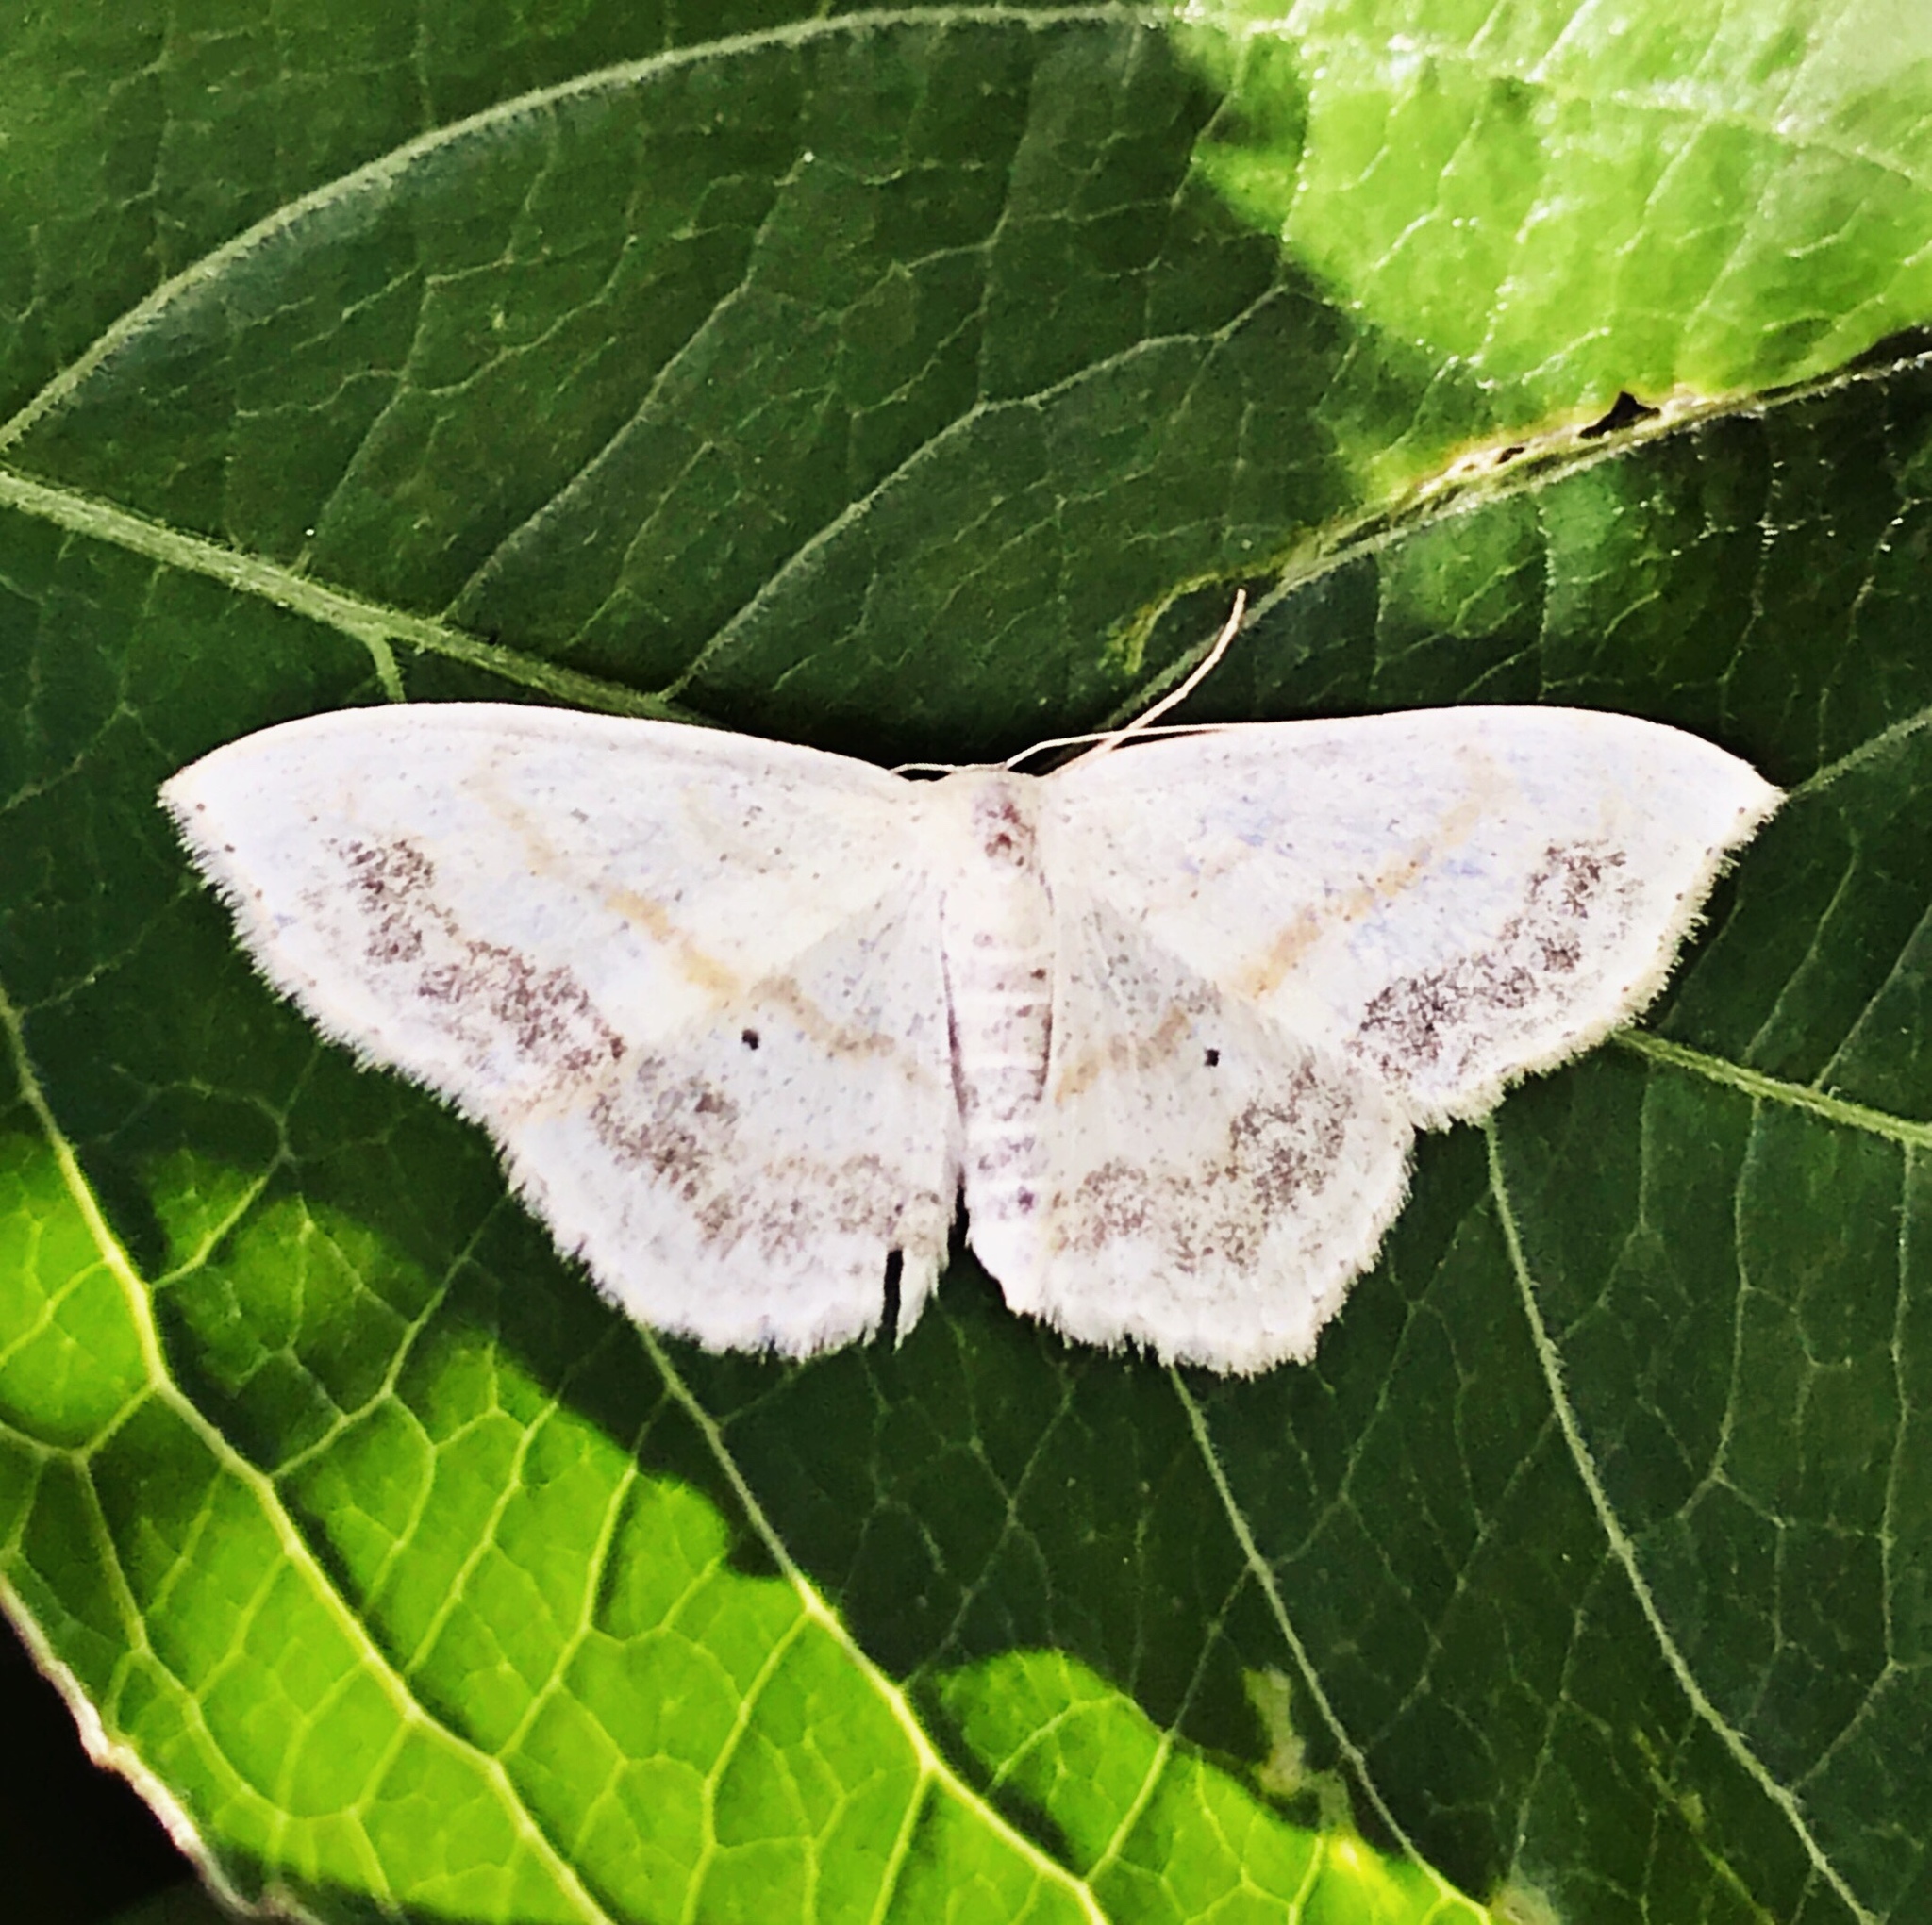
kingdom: Animalia
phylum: Arthropoda
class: Insecta
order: Lepidoptera
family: Geometridae
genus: Scopula
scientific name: Scopula limboundata
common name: Large lace border
